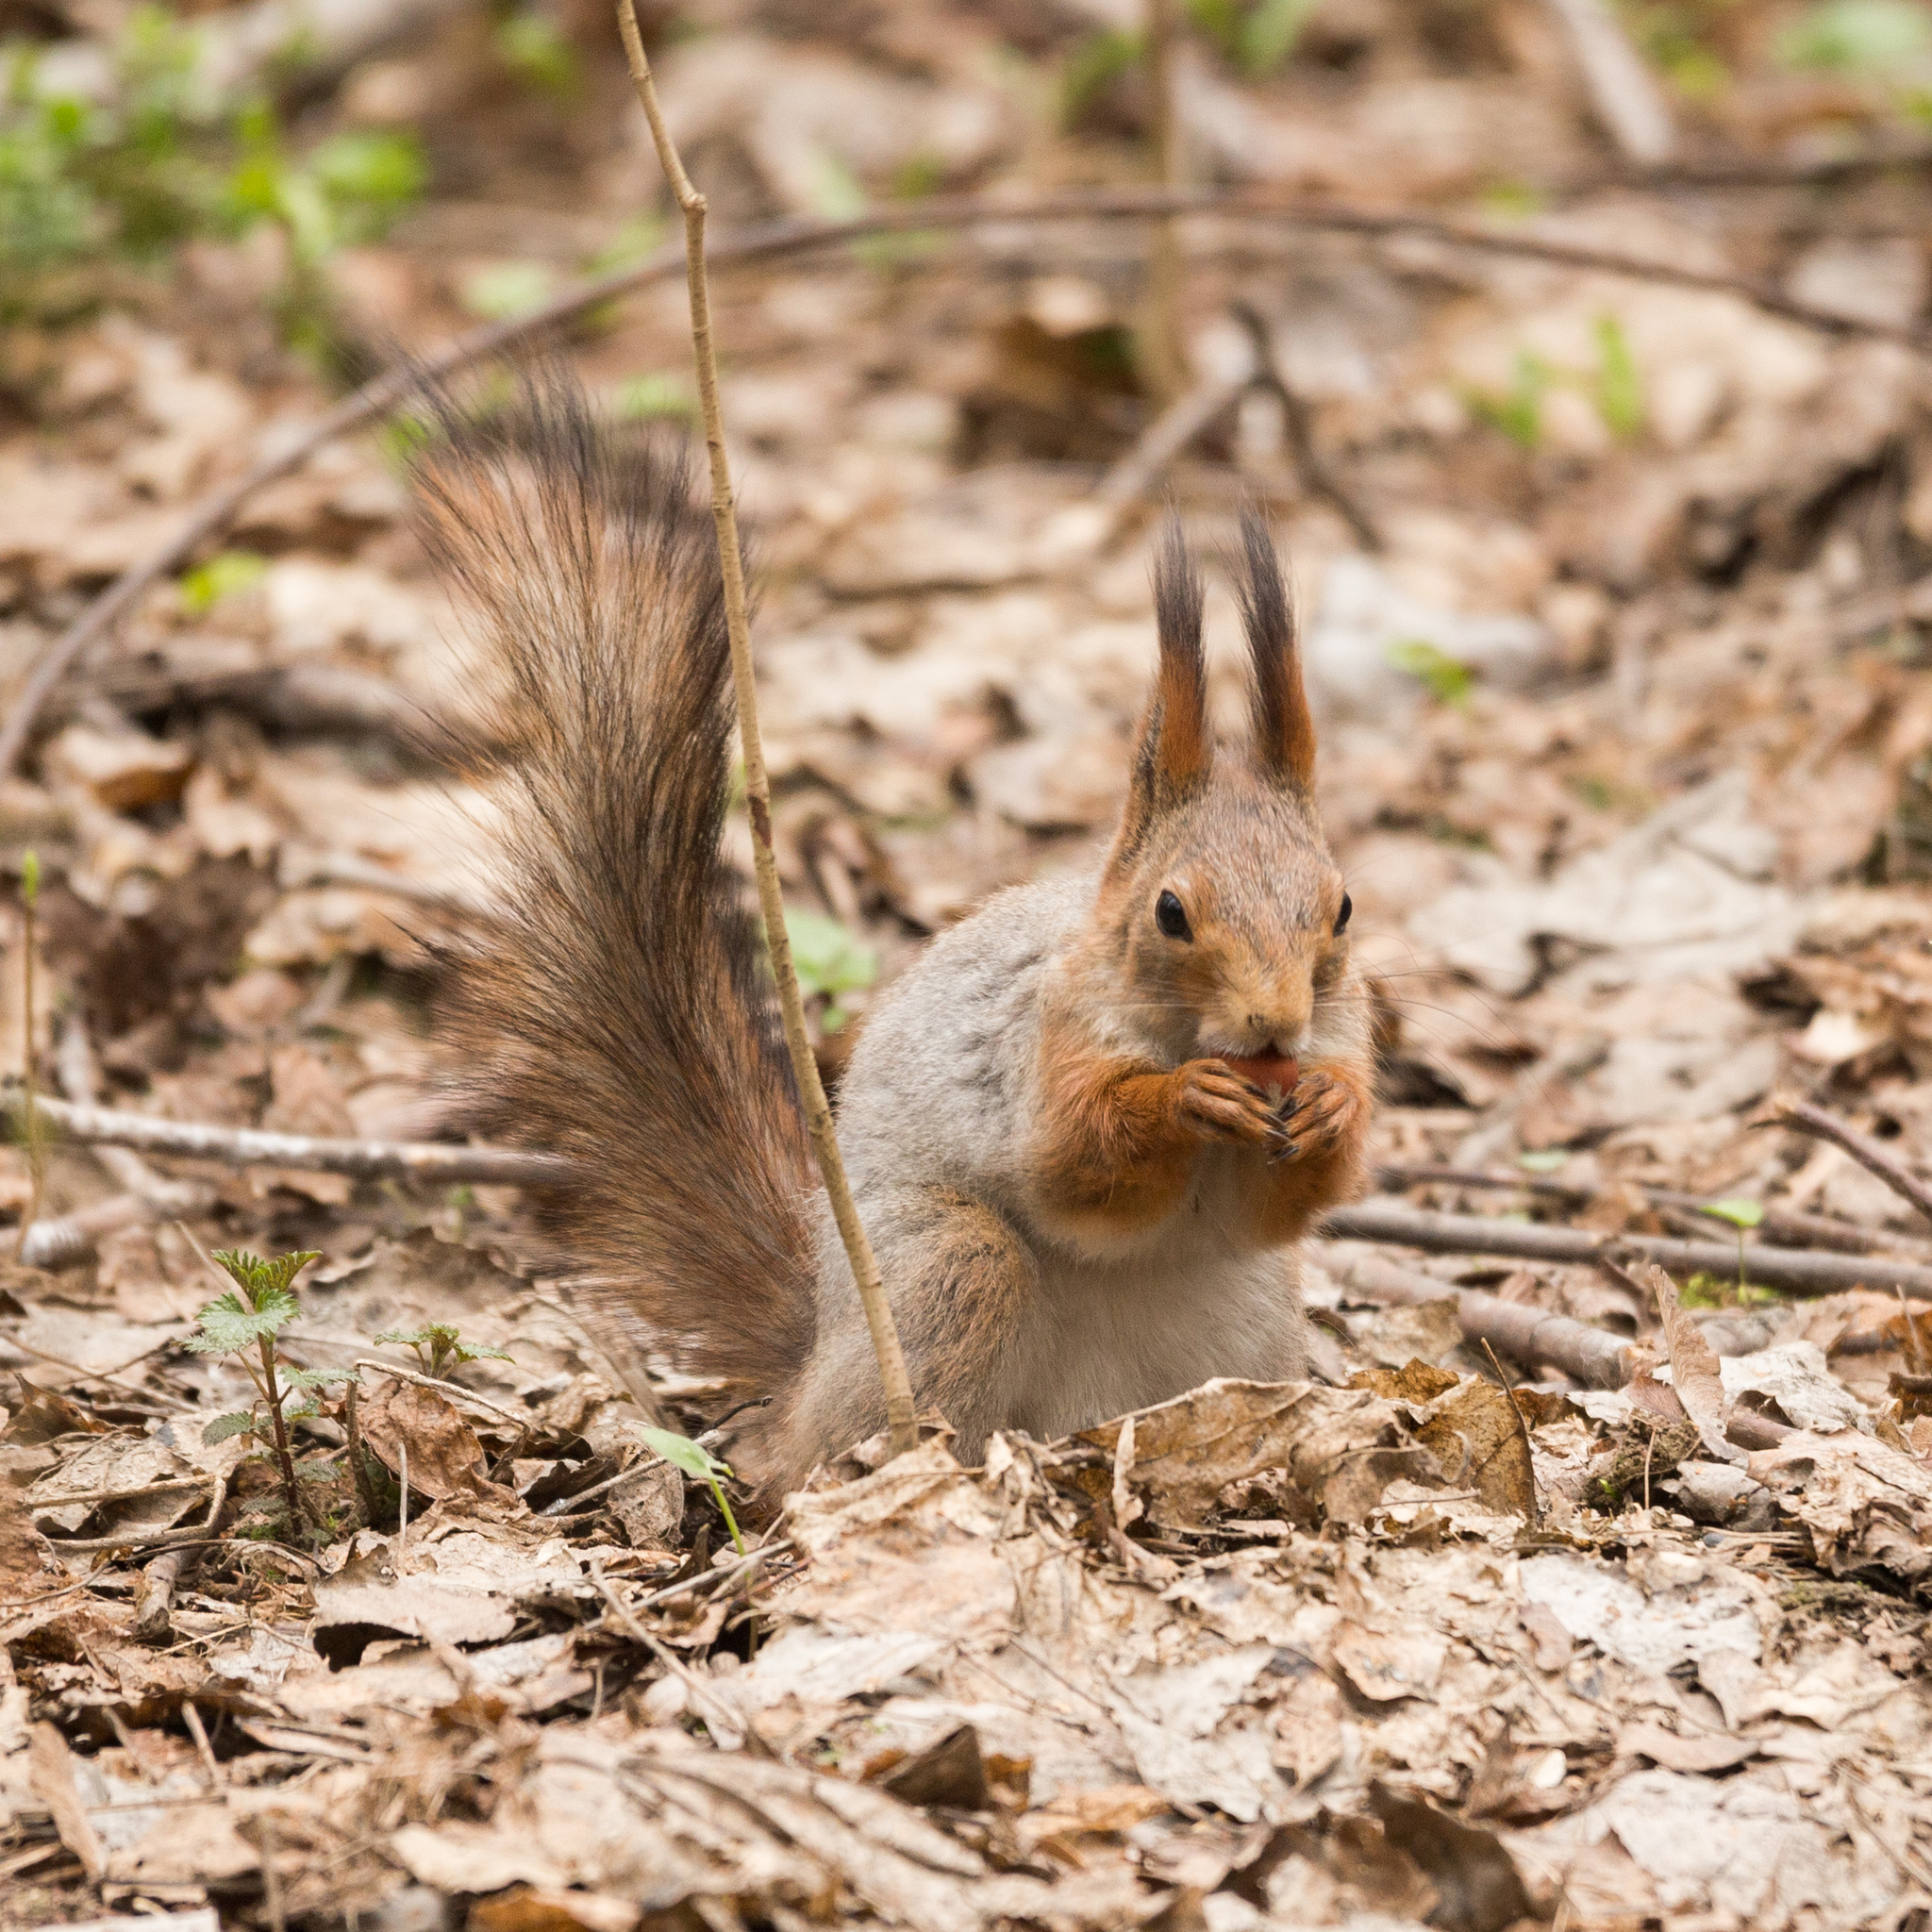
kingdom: Animalia
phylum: Chordata
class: Mammalia
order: Rodentia
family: Sciuridae
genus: Sciurus
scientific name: Sciurus vulgaris
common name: Eurasian red squirrel
